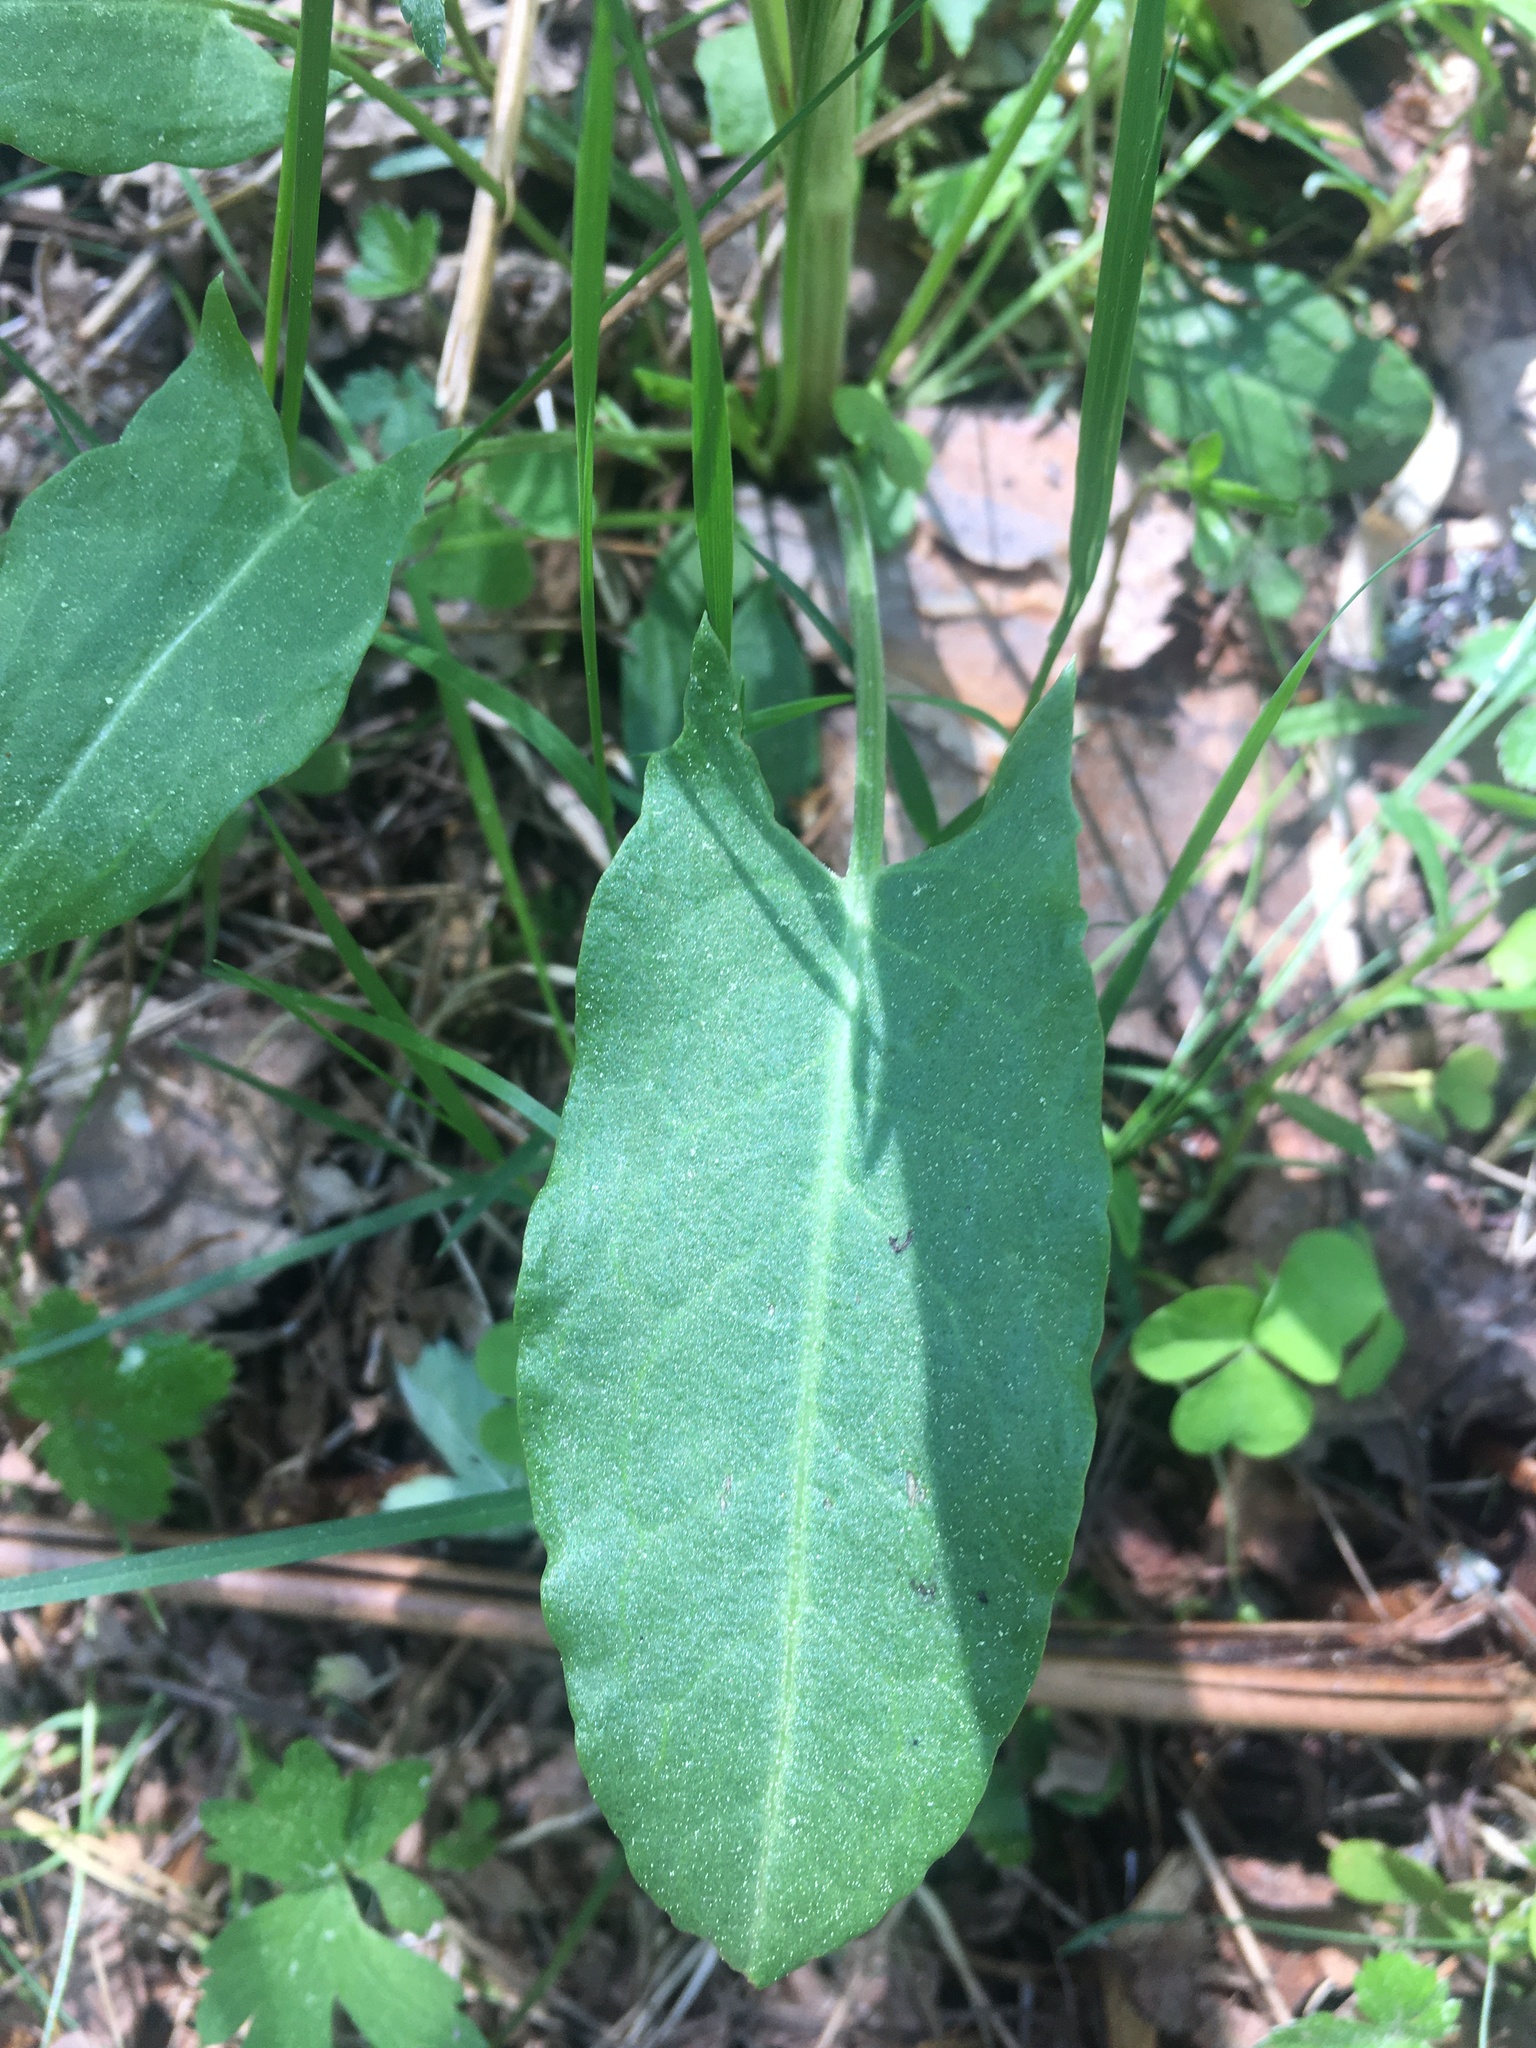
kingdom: Plantae
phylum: Tracheophyta
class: Magnoliopsida
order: Caryophyllales
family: Polygonaceae
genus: Rumex
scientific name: Rumex acetosa
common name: Garden sorrel
